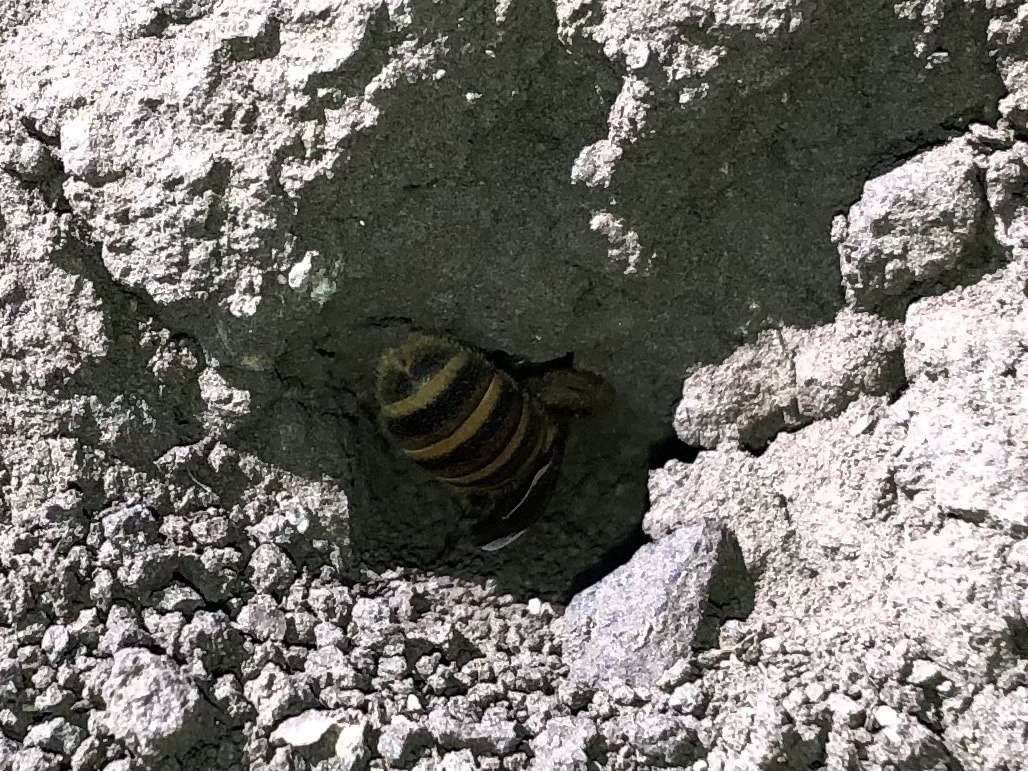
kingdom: Animalia
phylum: Arthropoda
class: Insecta
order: Hymenoptera
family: Halictidae
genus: Halictus
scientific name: Halictus scabiosae
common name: Great banded furrow bee
